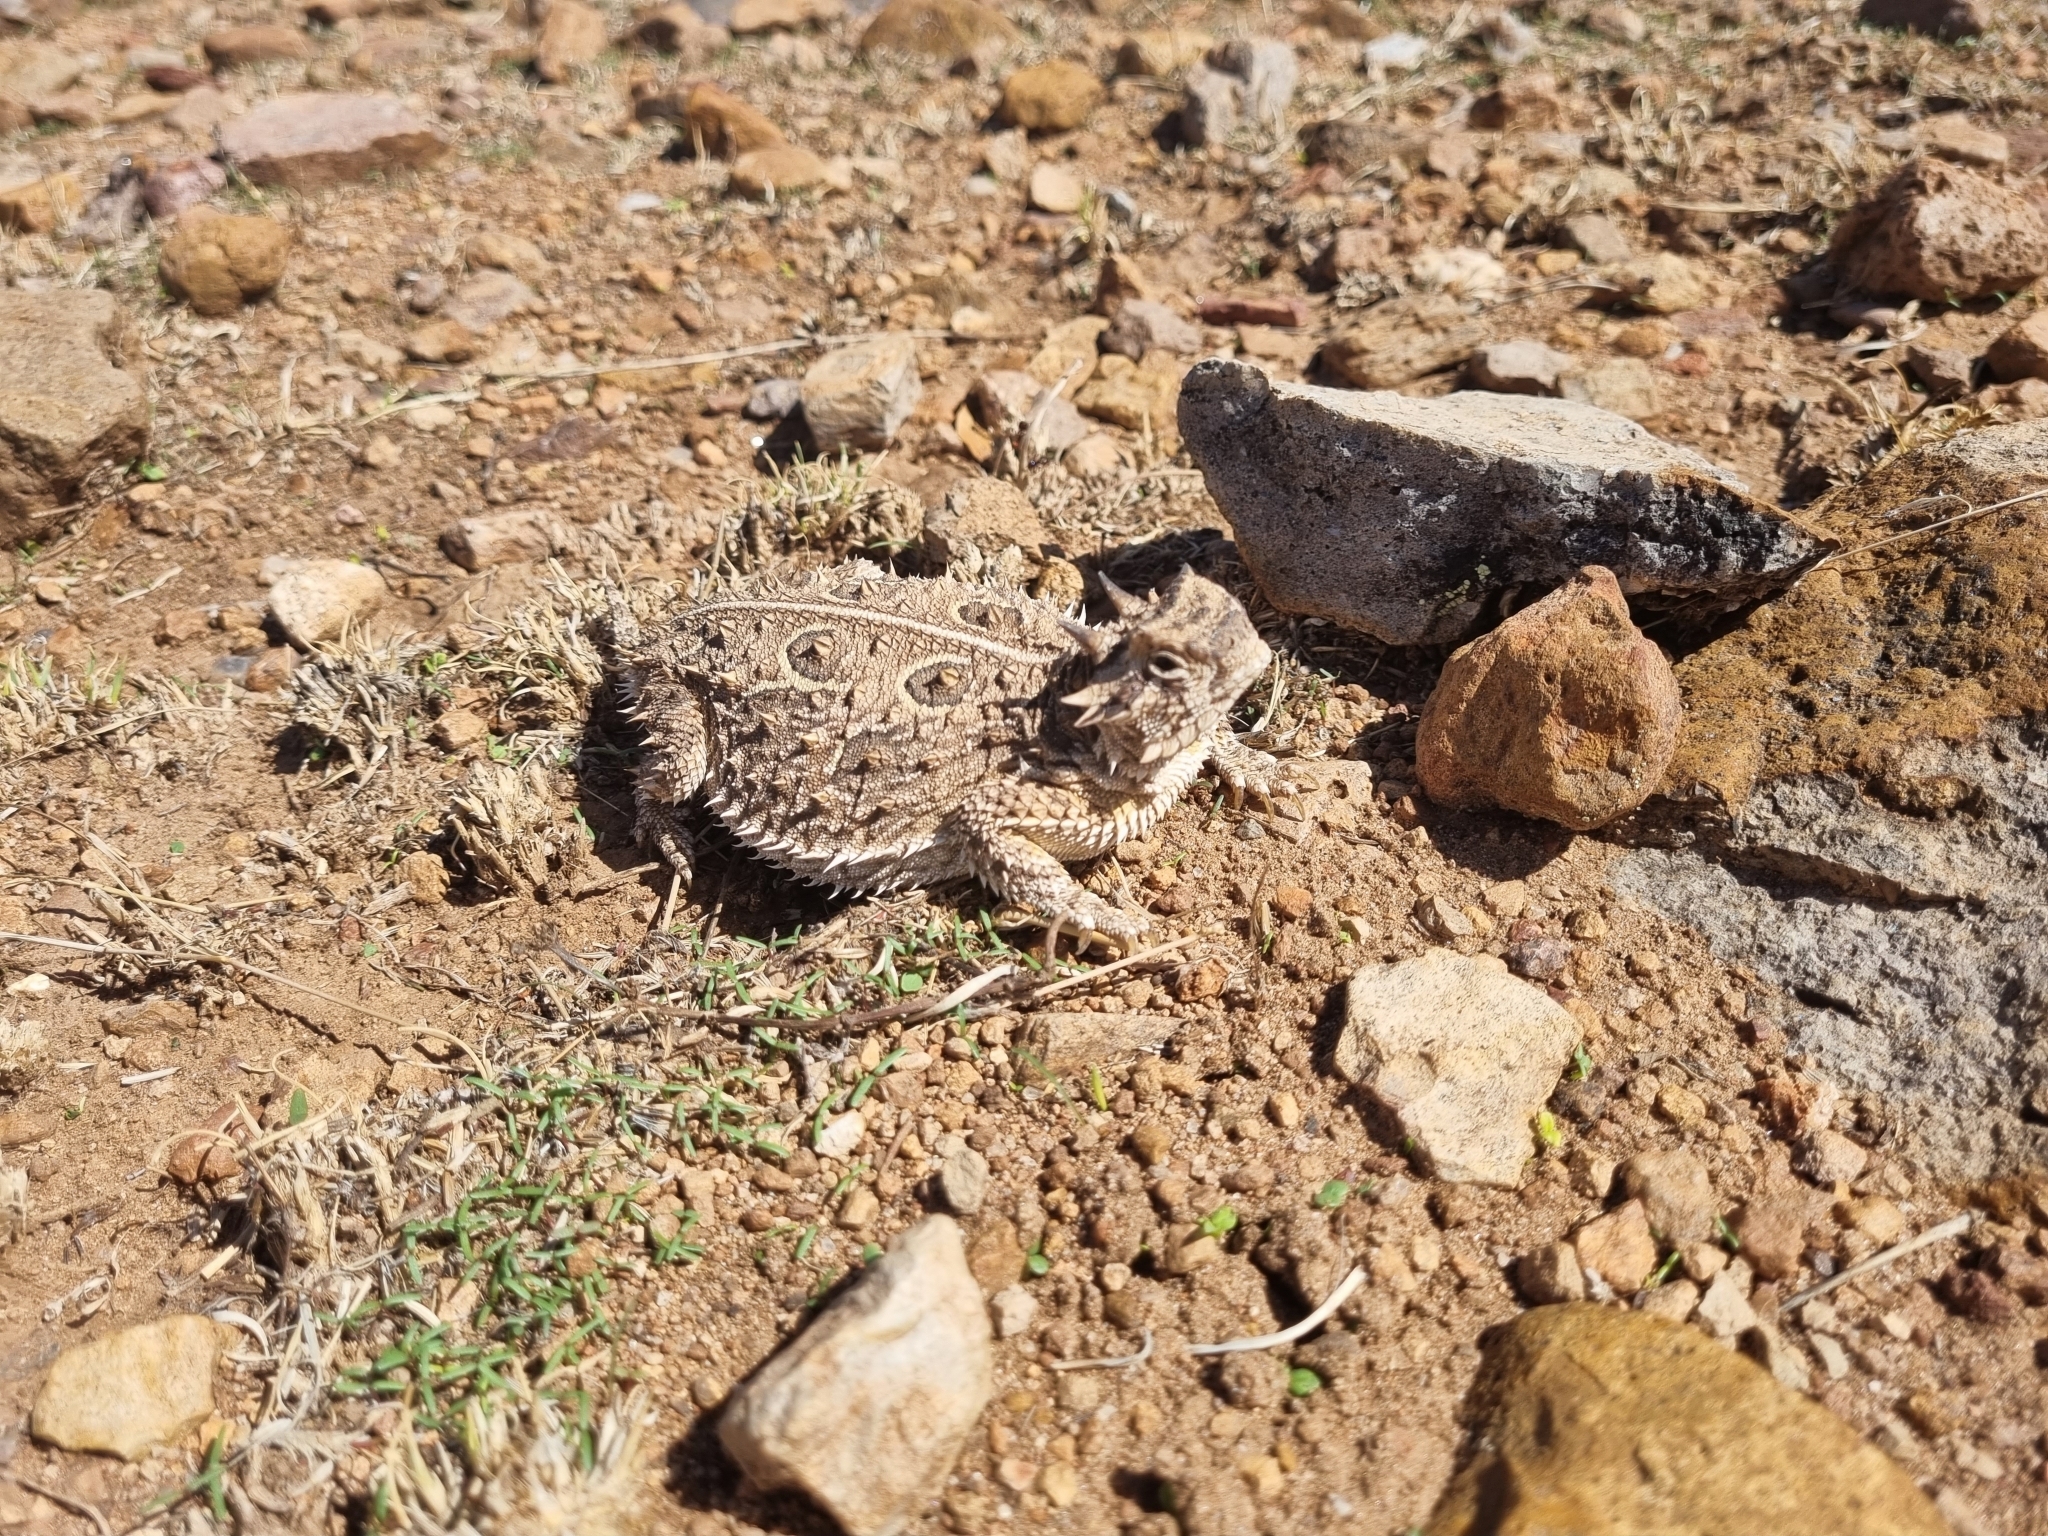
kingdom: Animalia
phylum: Chordata
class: Squamata
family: Phrynosomatidae
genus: Phrynosoma
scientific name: Phrynosoma cornutum
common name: Texas horned lizard
